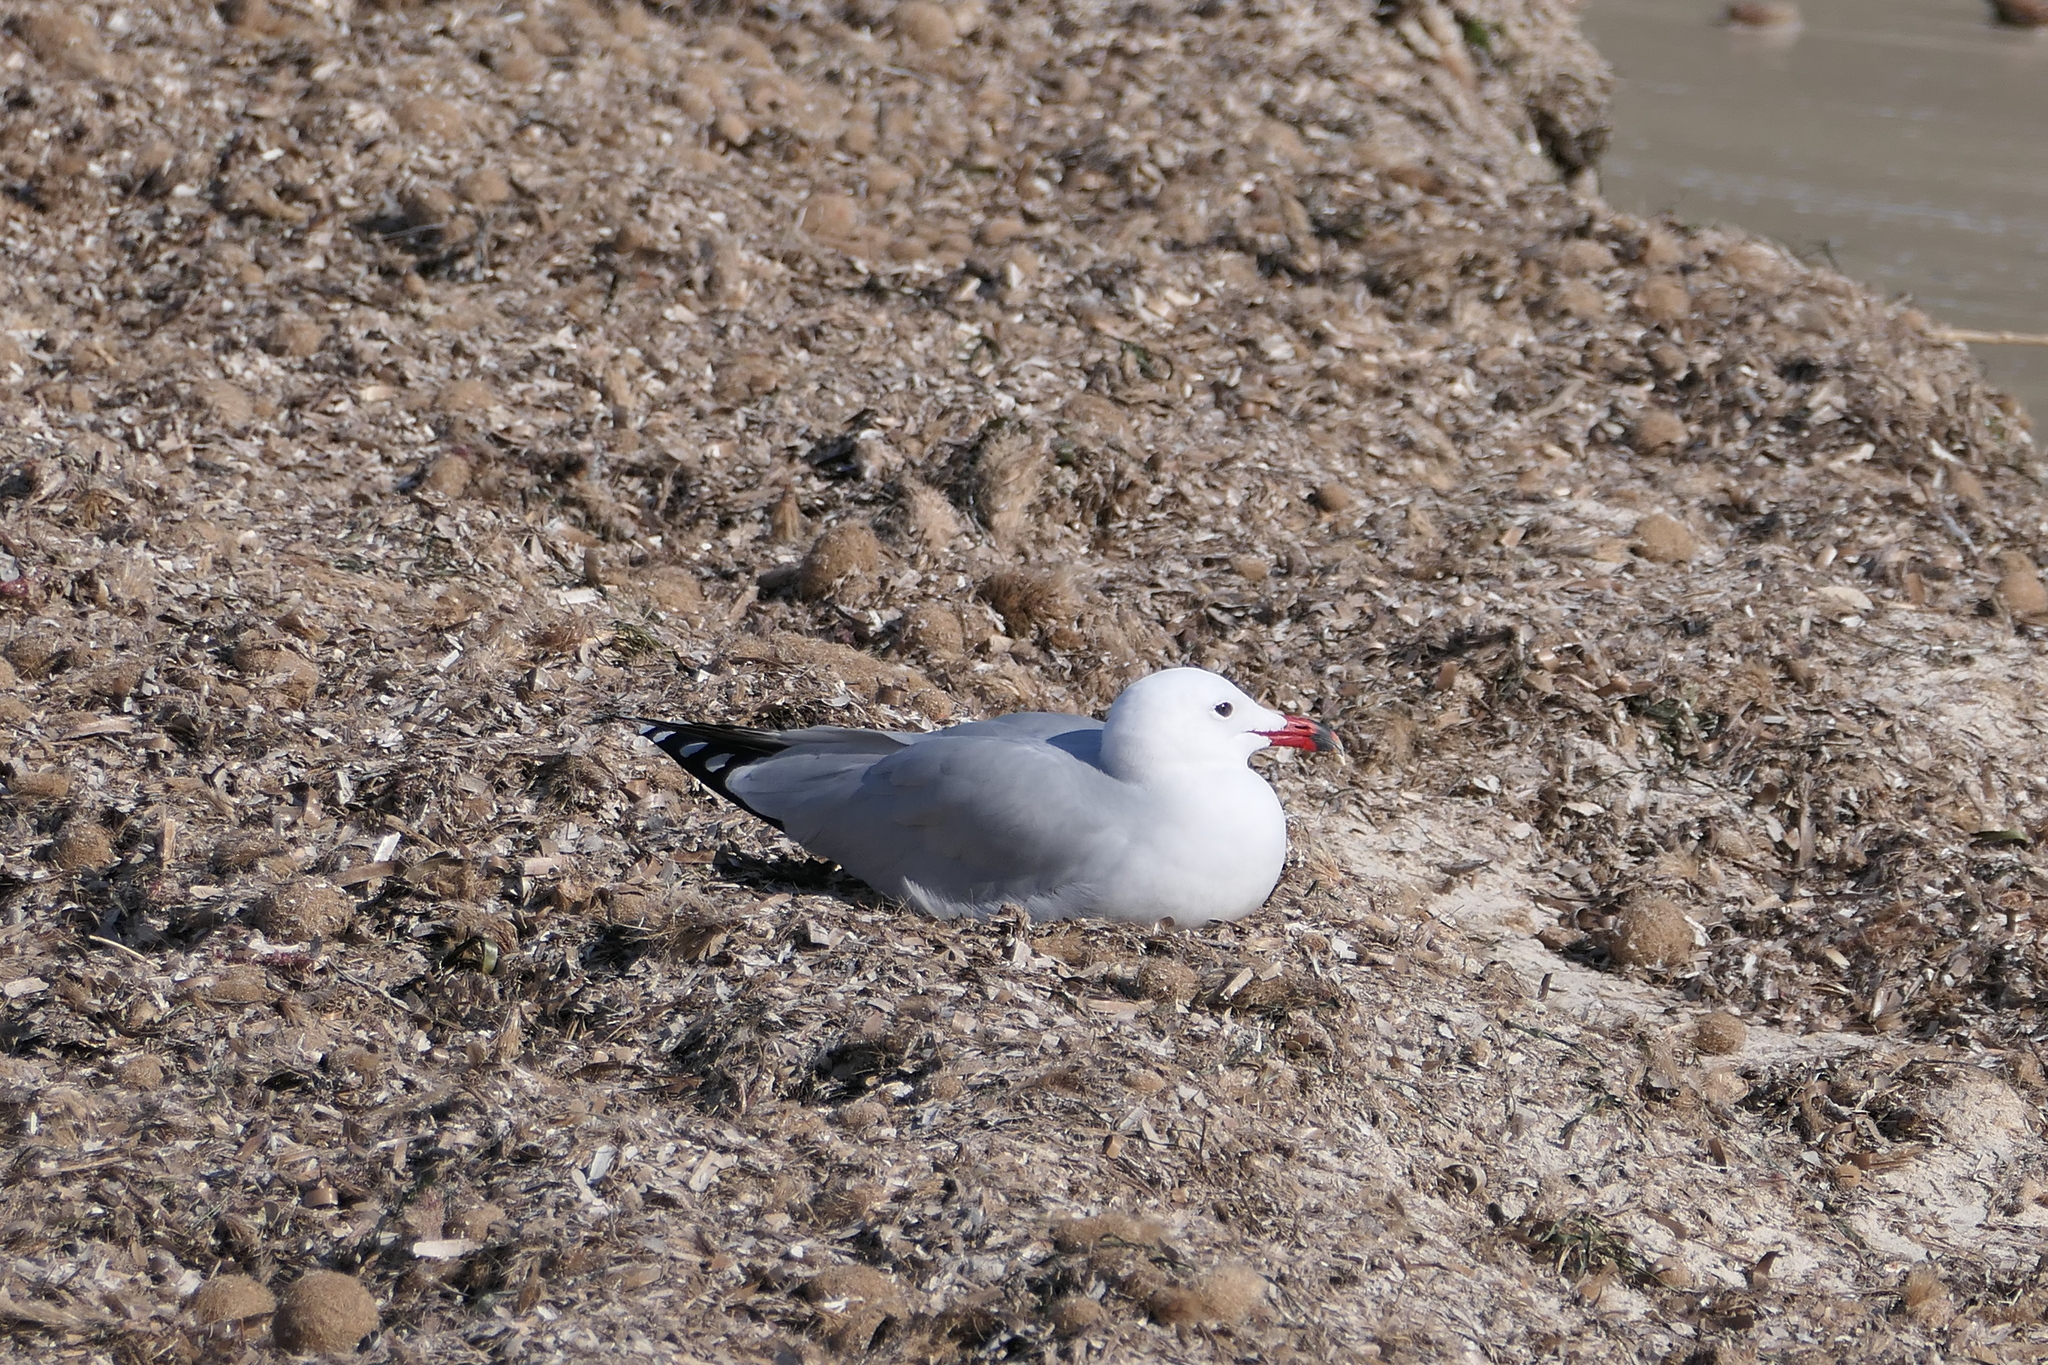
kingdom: Animalia
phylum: Chordata
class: Aves
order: Charadriiformes
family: Laridae
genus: Ichthyaetus
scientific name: Ichthyaetus audouinii
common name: Audouin's gull
